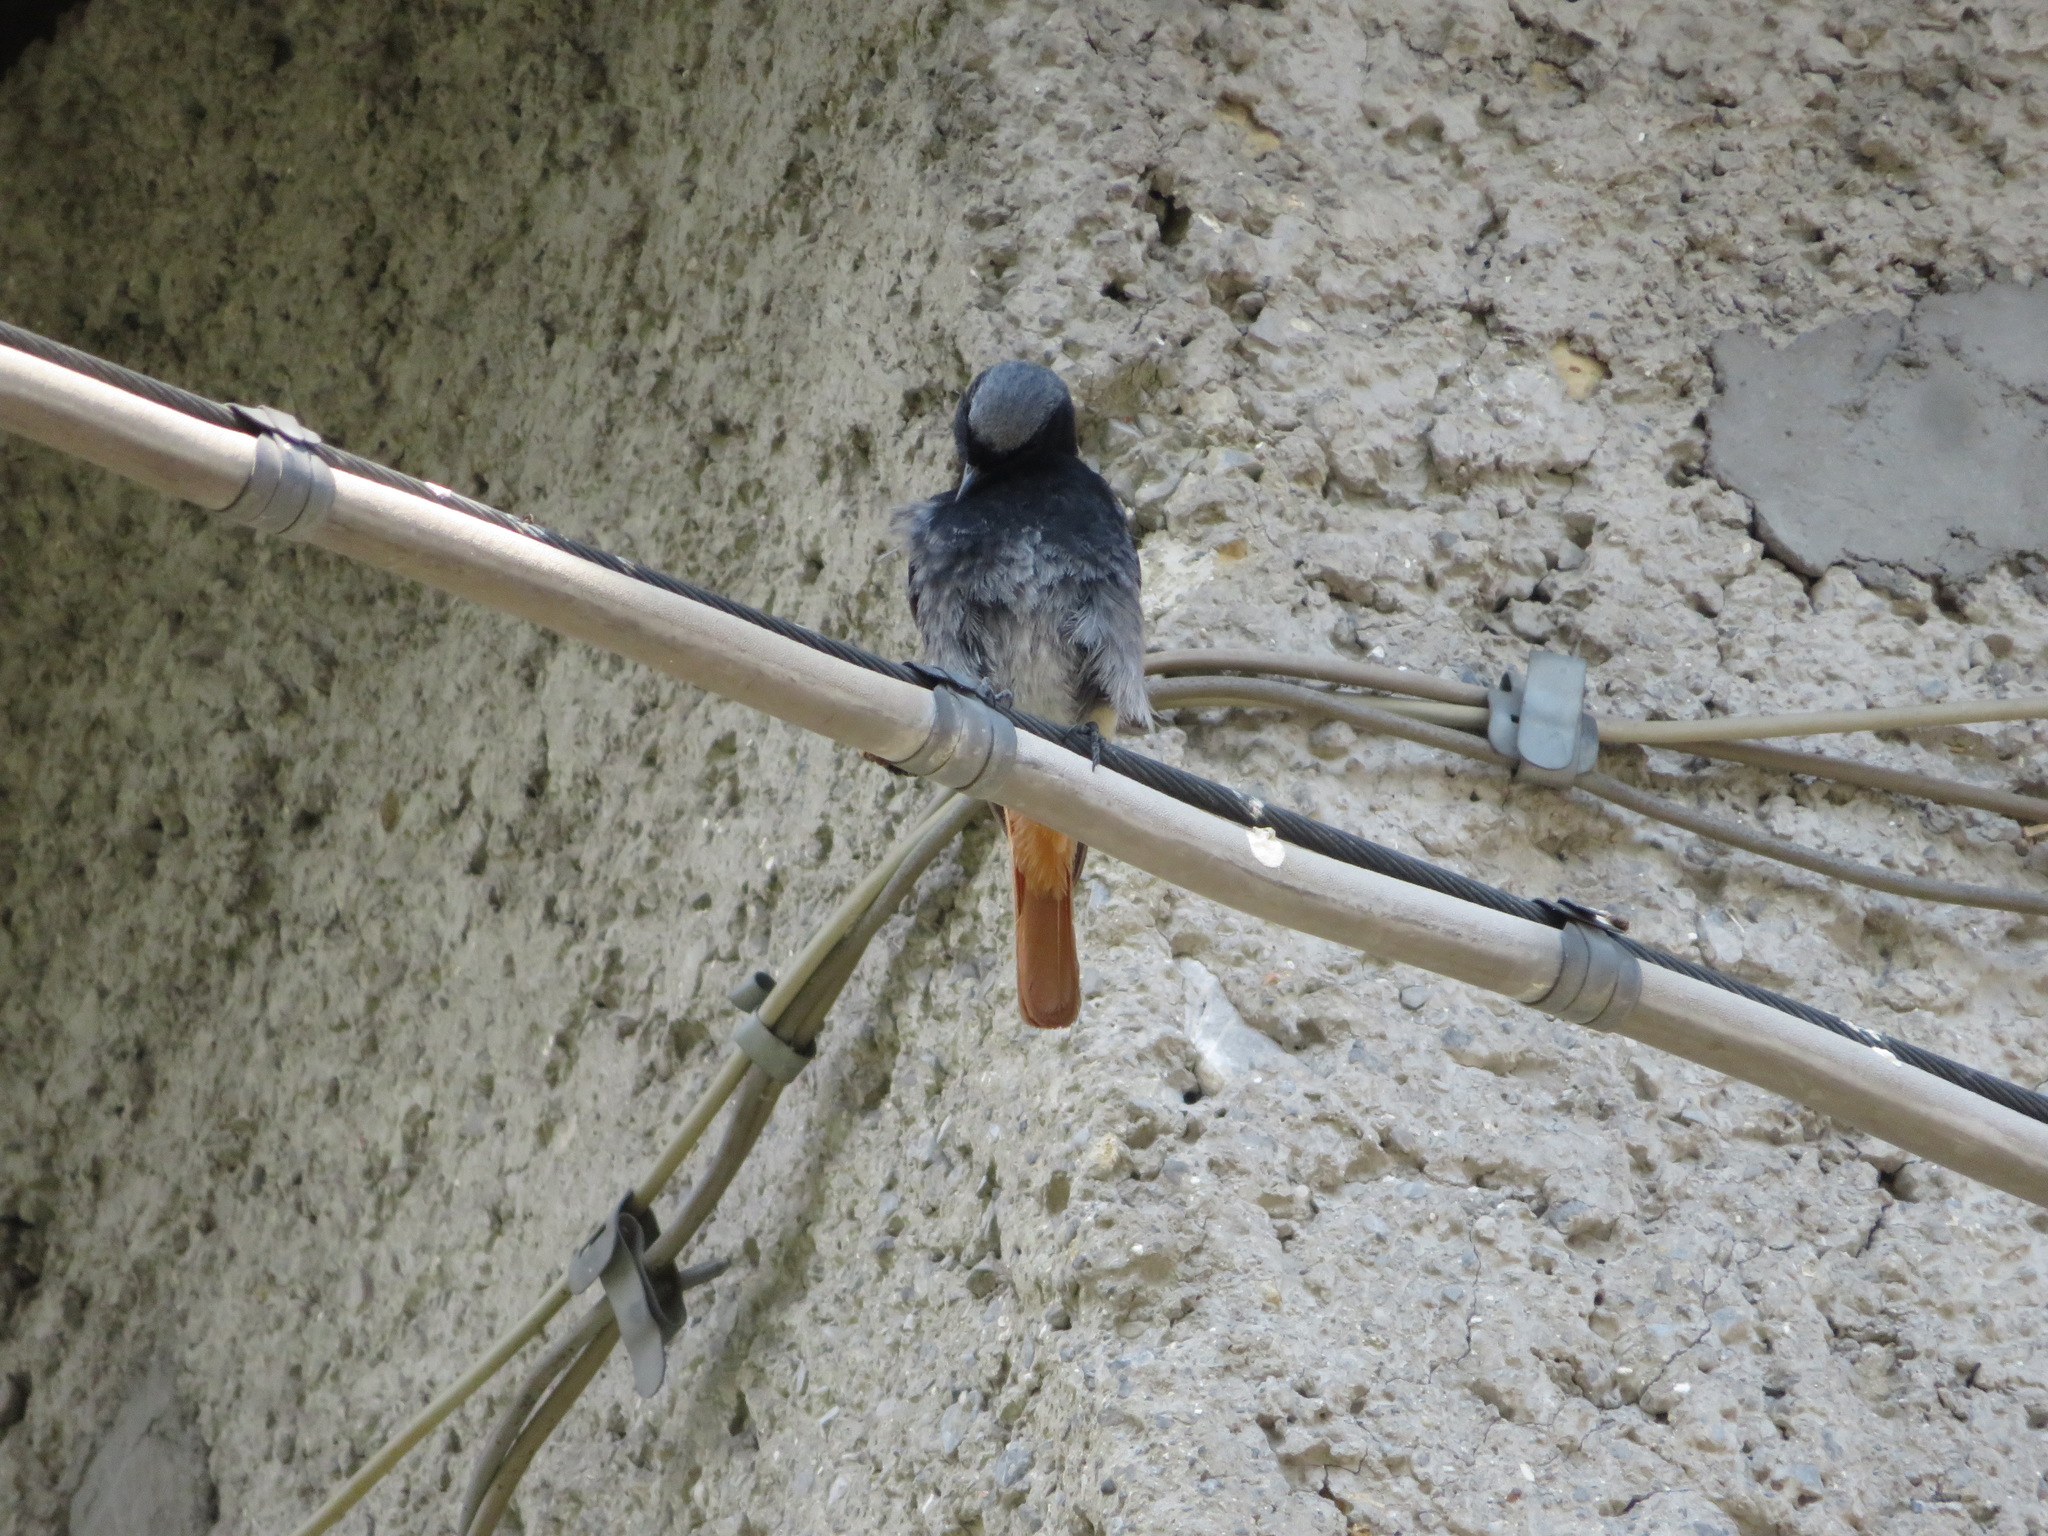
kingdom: Animalia
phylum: Chordata
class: Aves
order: Passeriformes
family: Muscicapidae
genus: Phoenicurus
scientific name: Phoenicurus ochruros
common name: Black redstart
